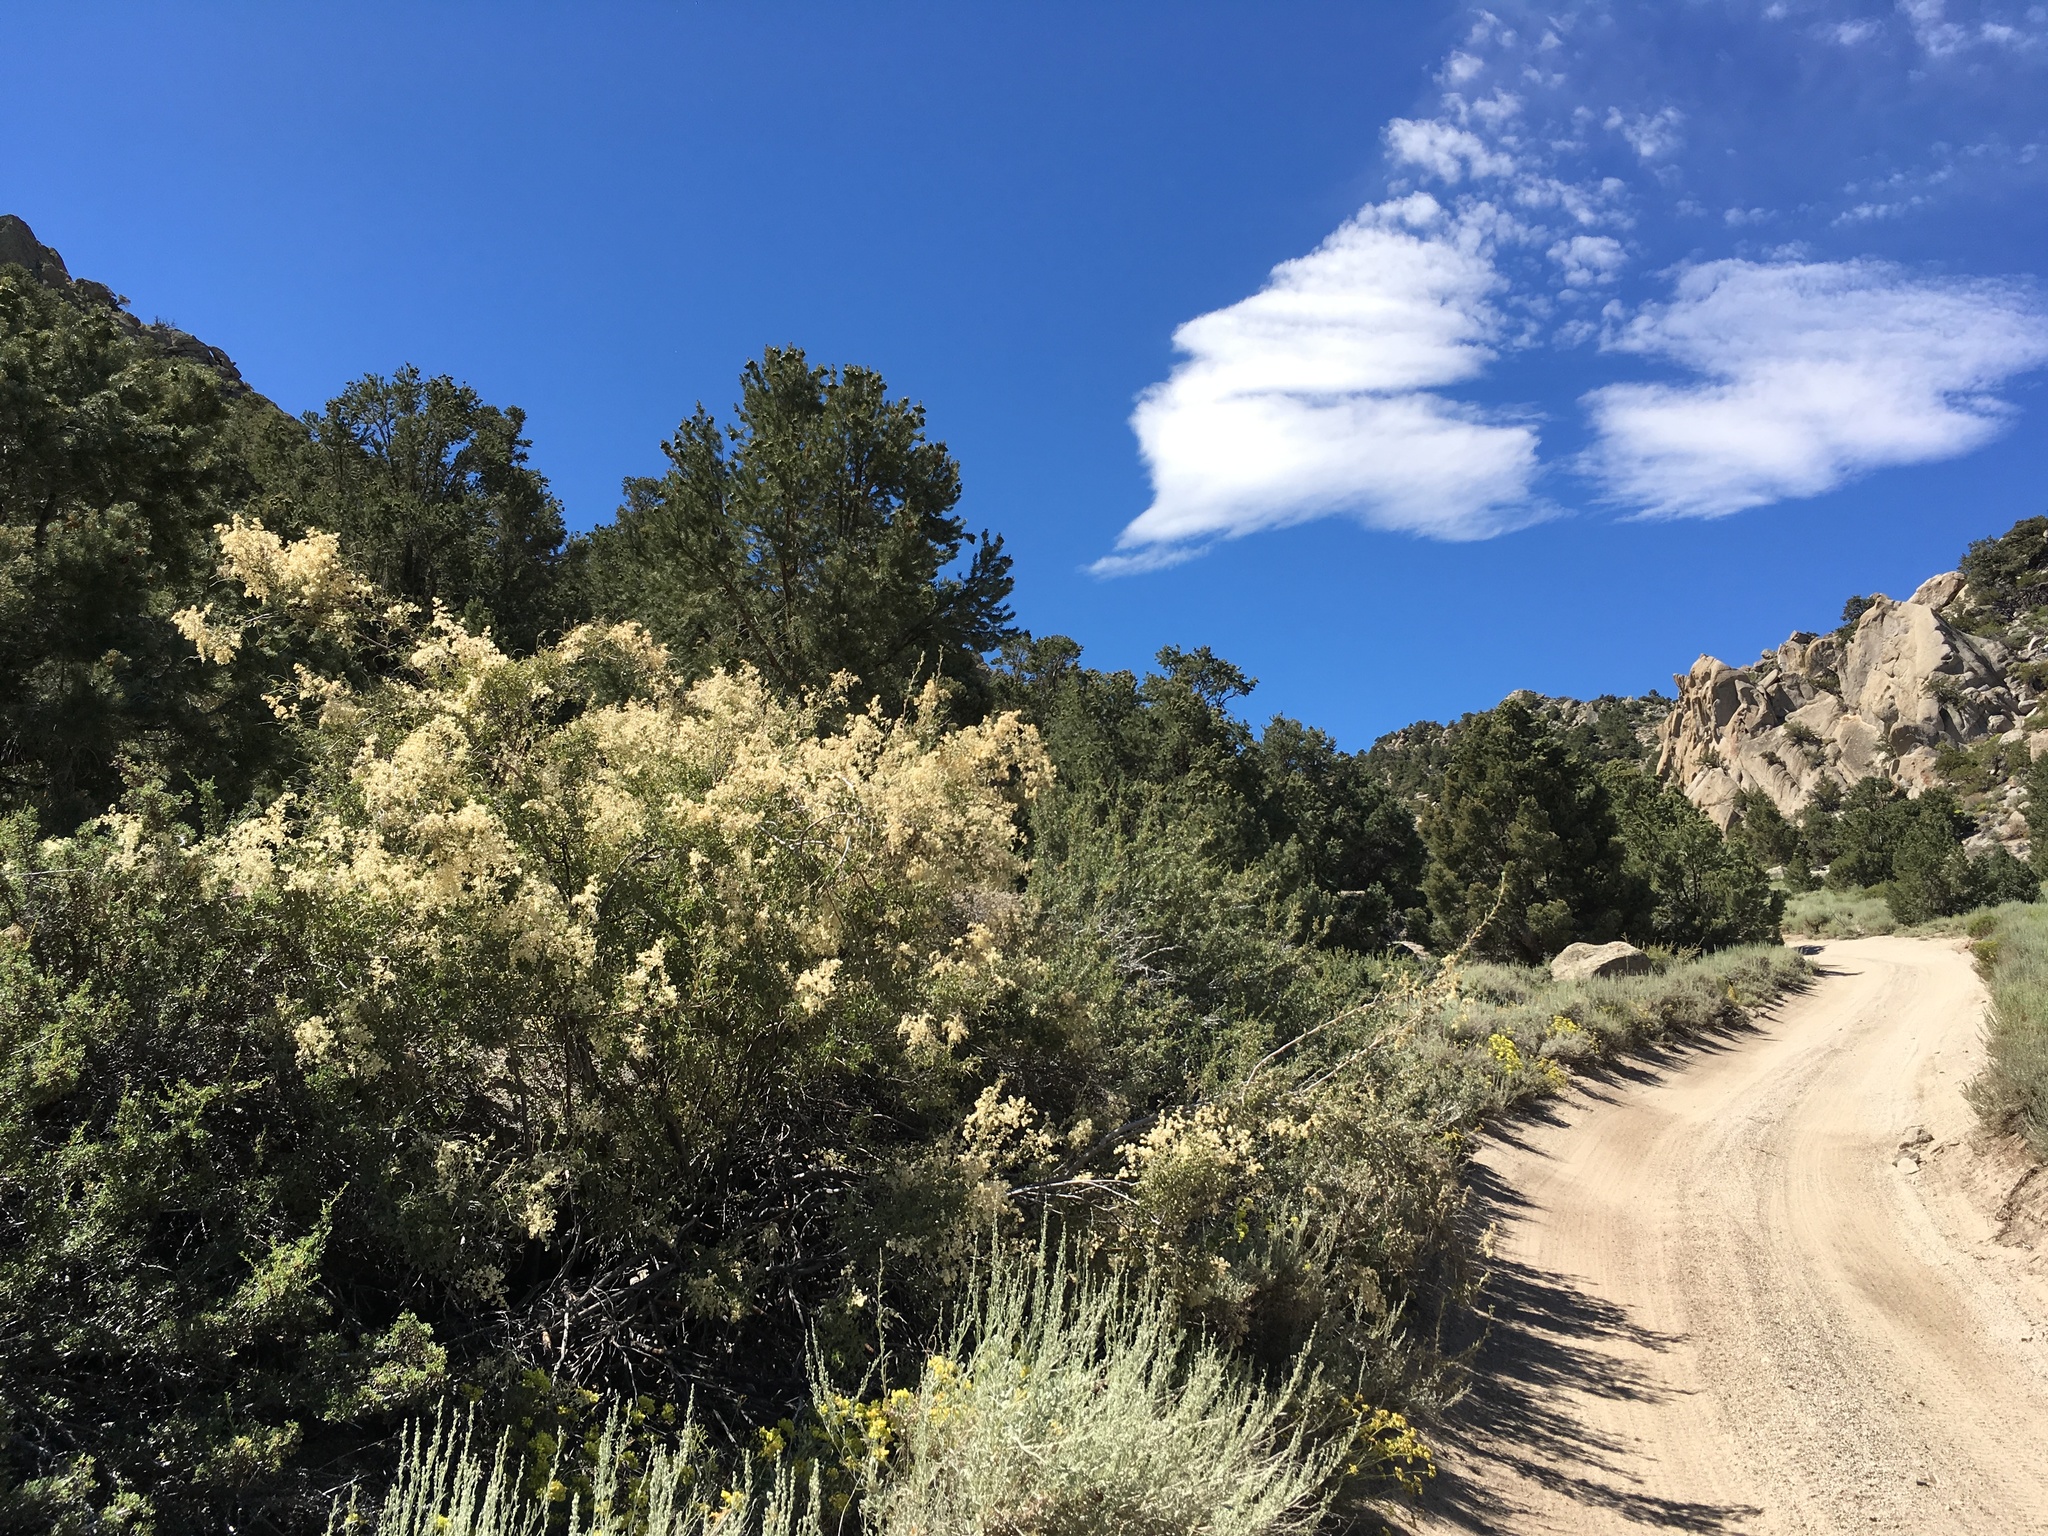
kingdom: Plantae
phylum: Tracheophyta
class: Magnoliopsida
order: Rosales
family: Rosaceae
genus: Holodiscus
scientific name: Holodiscus discolor
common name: Oceanspray
